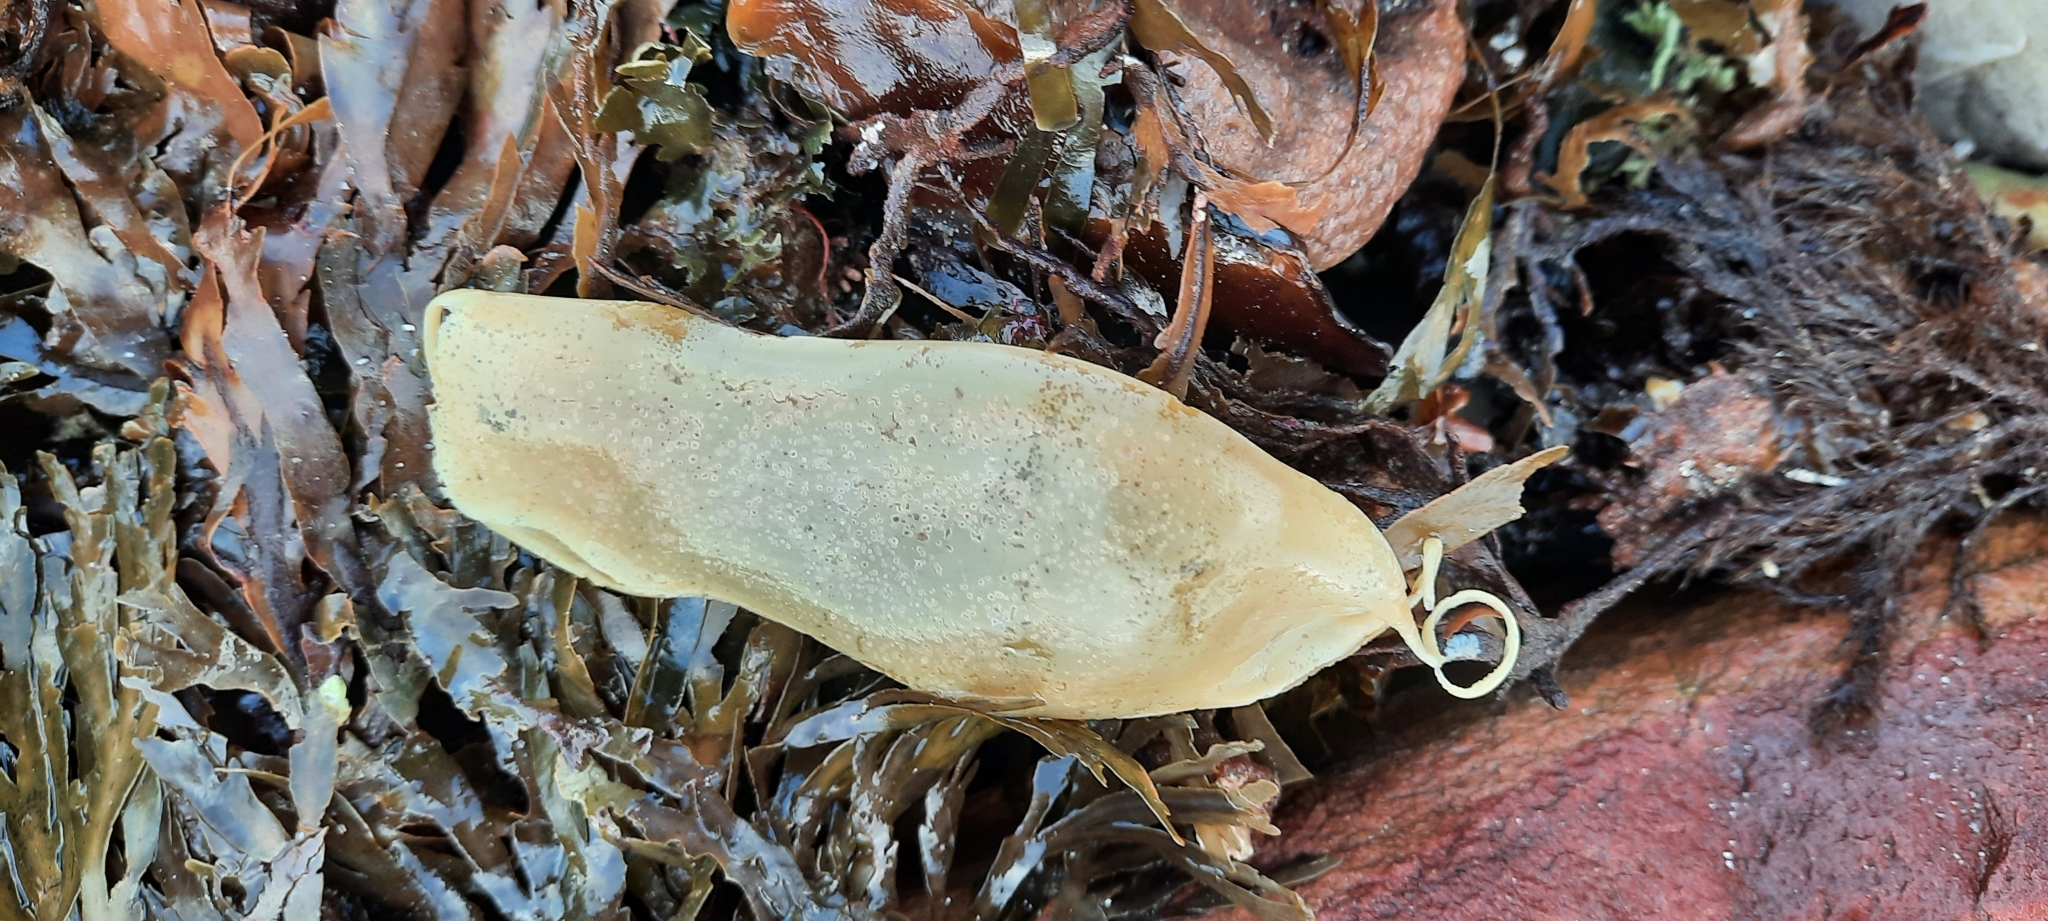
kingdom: Animalia
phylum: Chordata
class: Elasmobranchii
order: Carcharhiniformes
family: Scyliorhinidae
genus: Poroderma
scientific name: Poroderma pantherinum
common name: Leopard catshark
